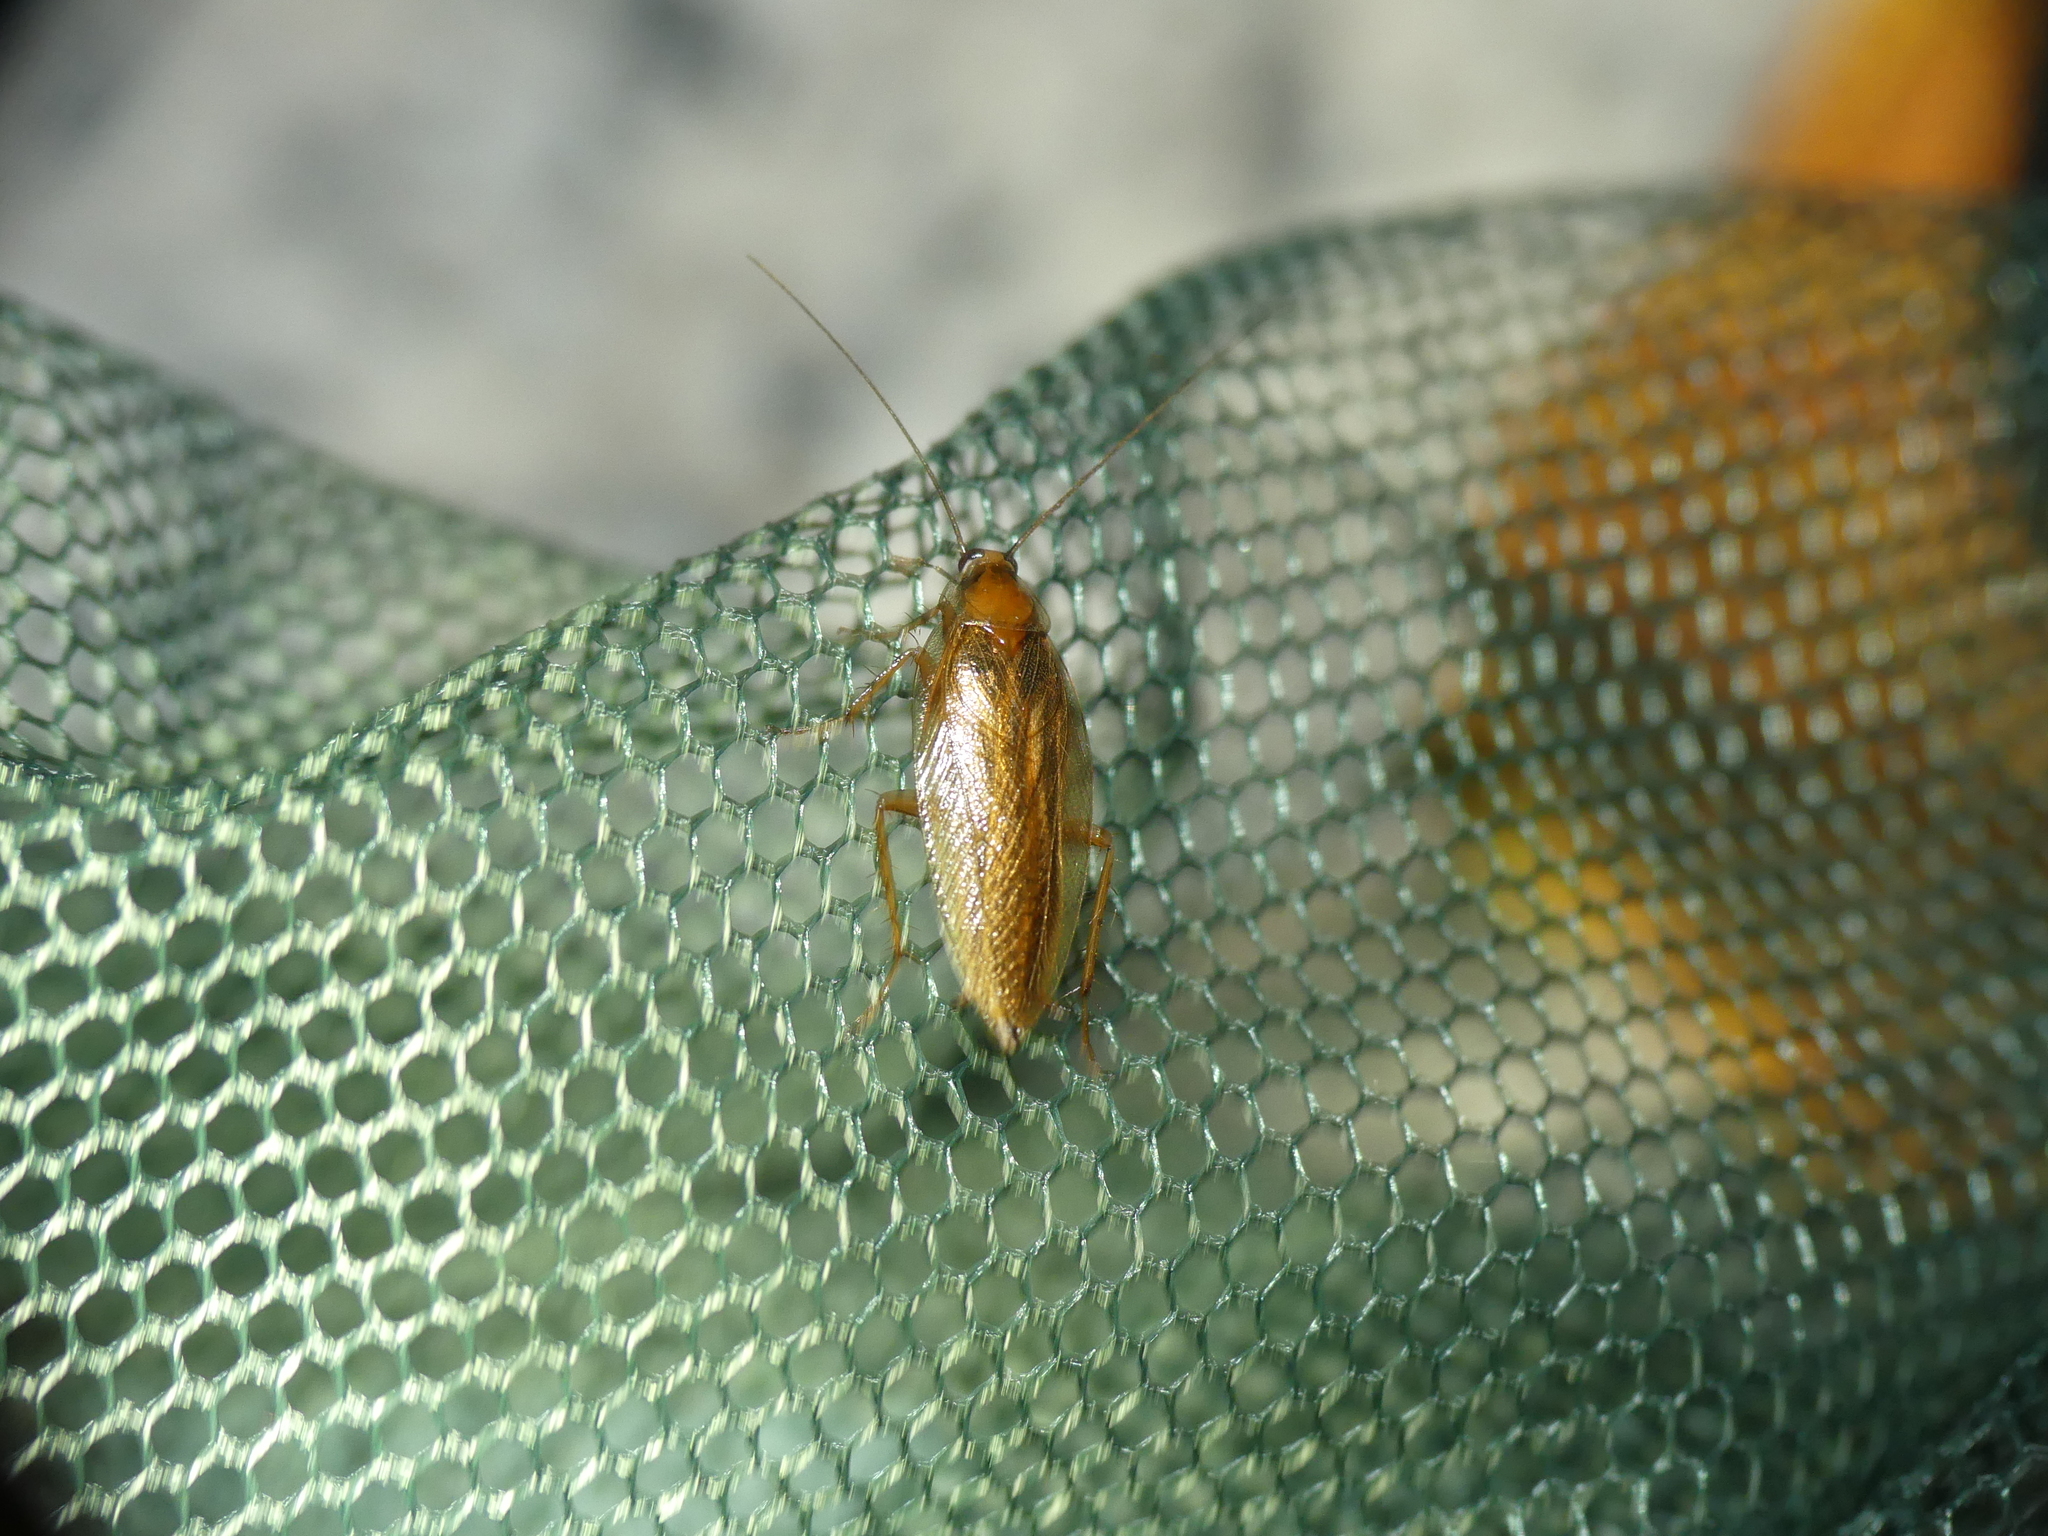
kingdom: Animalia
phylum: Arthropoda
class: Insecta
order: Blattodea
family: Ectobiidae
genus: Ectobius
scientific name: Ectobius vittiventris
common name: Garden cockroach
